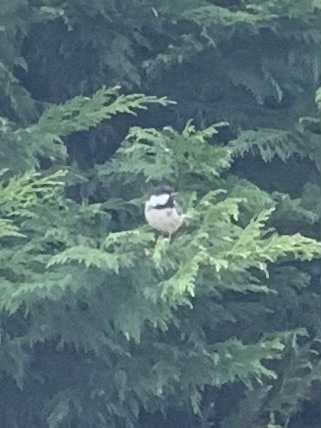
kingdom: Animalia
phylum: Chordata
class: Aves
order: Passeriformes
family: Paridae
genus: Periparus
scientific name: Periparus ater
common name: Coal tit
